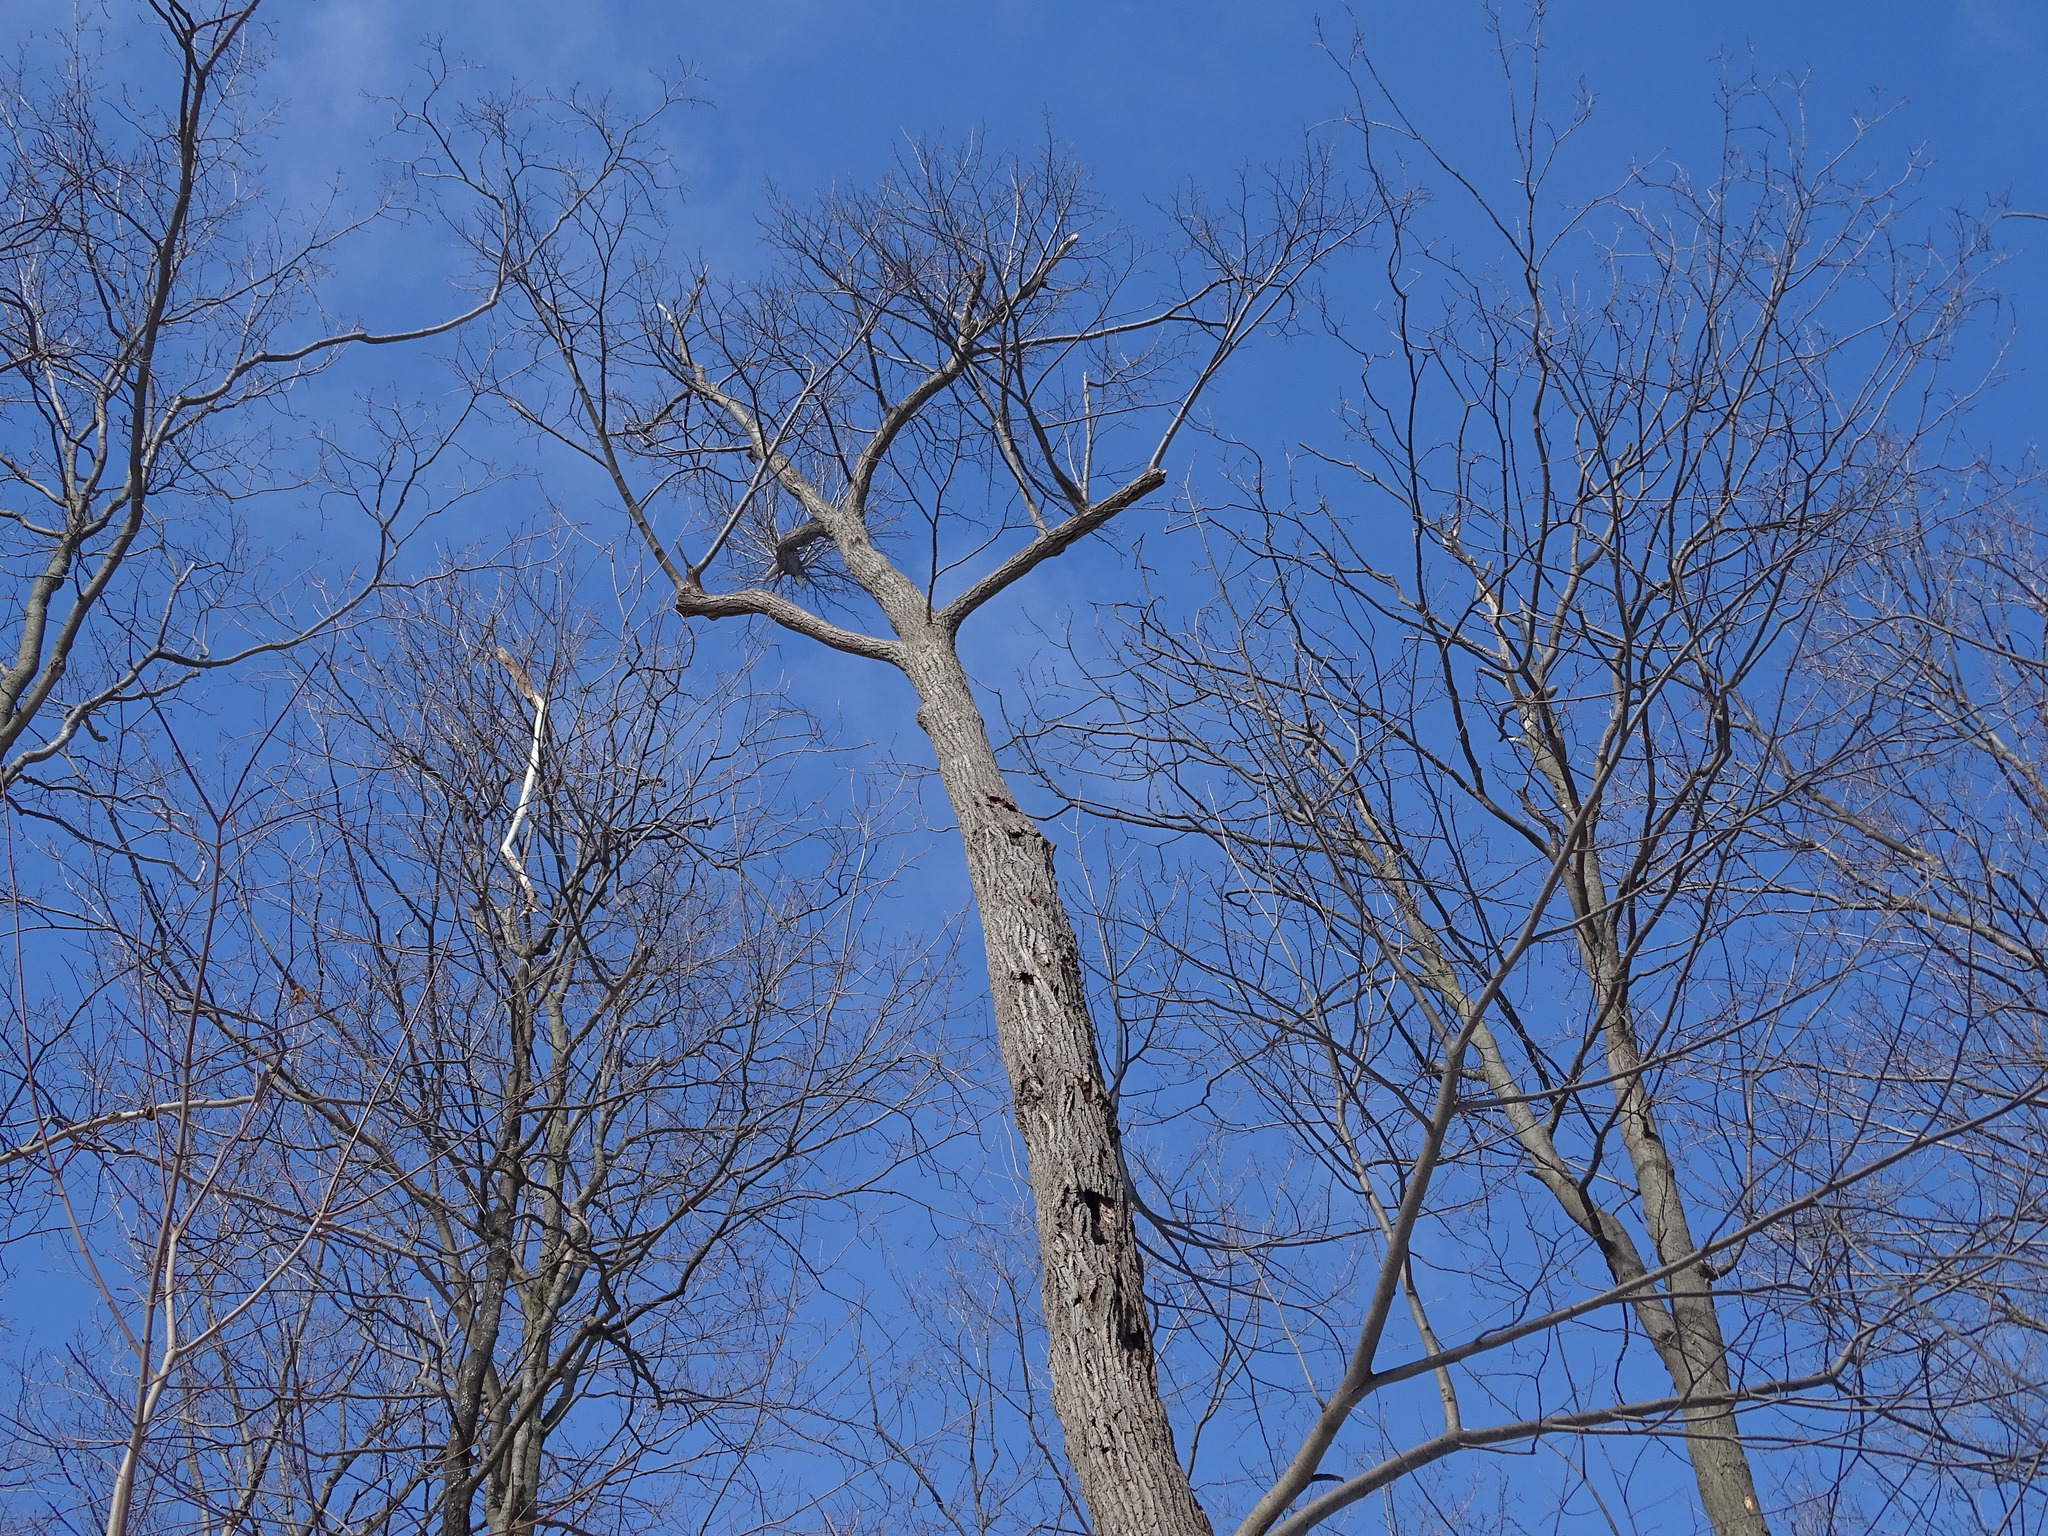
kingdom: Plantae
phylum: Tracheophyta
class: Magnoliopsida
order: Malvales
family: Malvaceae
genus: Tilia
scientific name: Tilia americana
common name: Basswood
